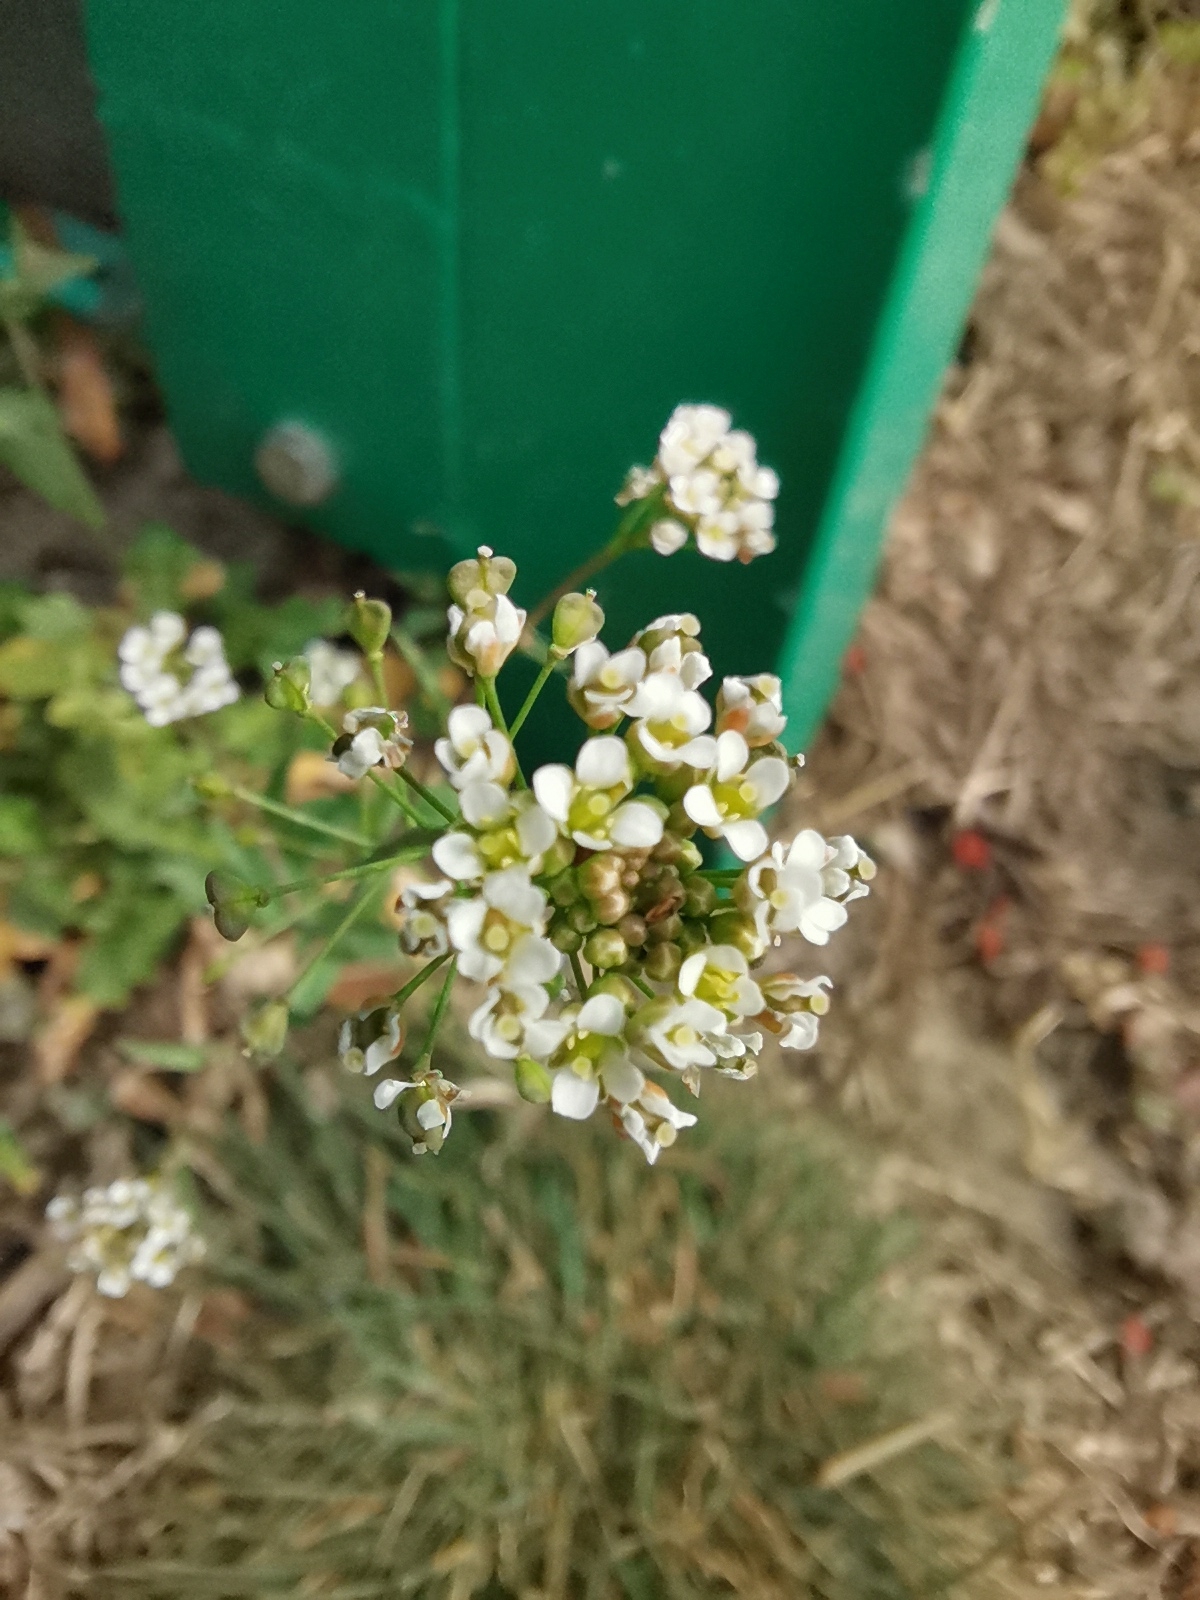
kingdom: Plantae
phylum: Tracheophyta
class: Magnoliopsida
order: Brassicales
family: Brassicaceae
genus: Capsella
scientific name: Capsella bursa-pastoris
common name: Shepherd's purse
